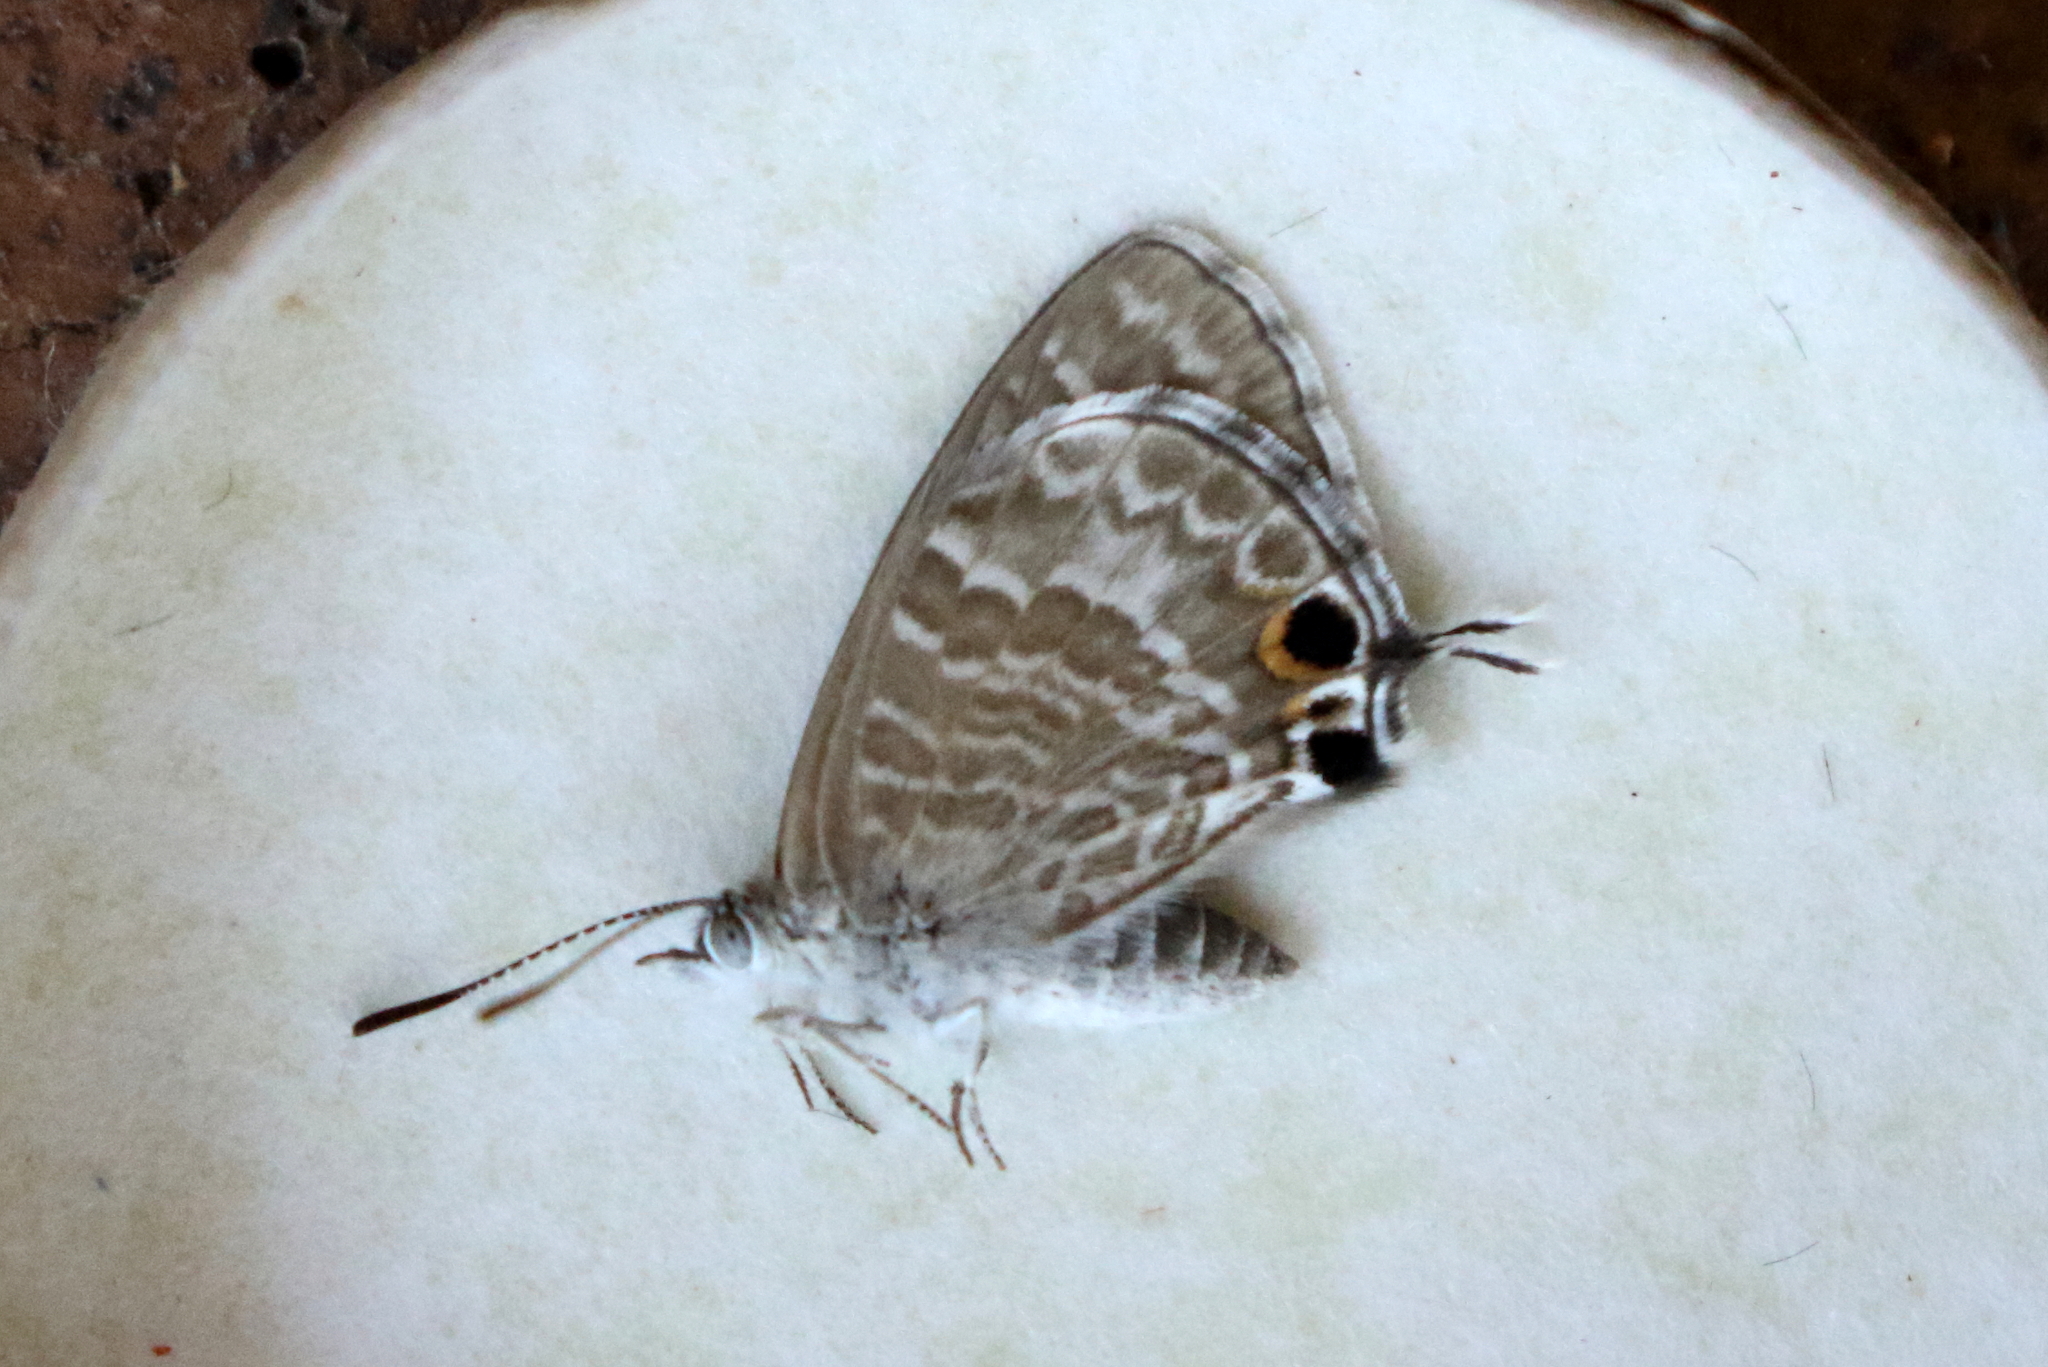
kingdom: Animalia
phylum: Arthropoda
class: Insecta
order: Lepidoptera
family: Lycaenidae
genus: Theclinesthes
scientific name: Theclinesthes onycha
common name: Cycad blue
